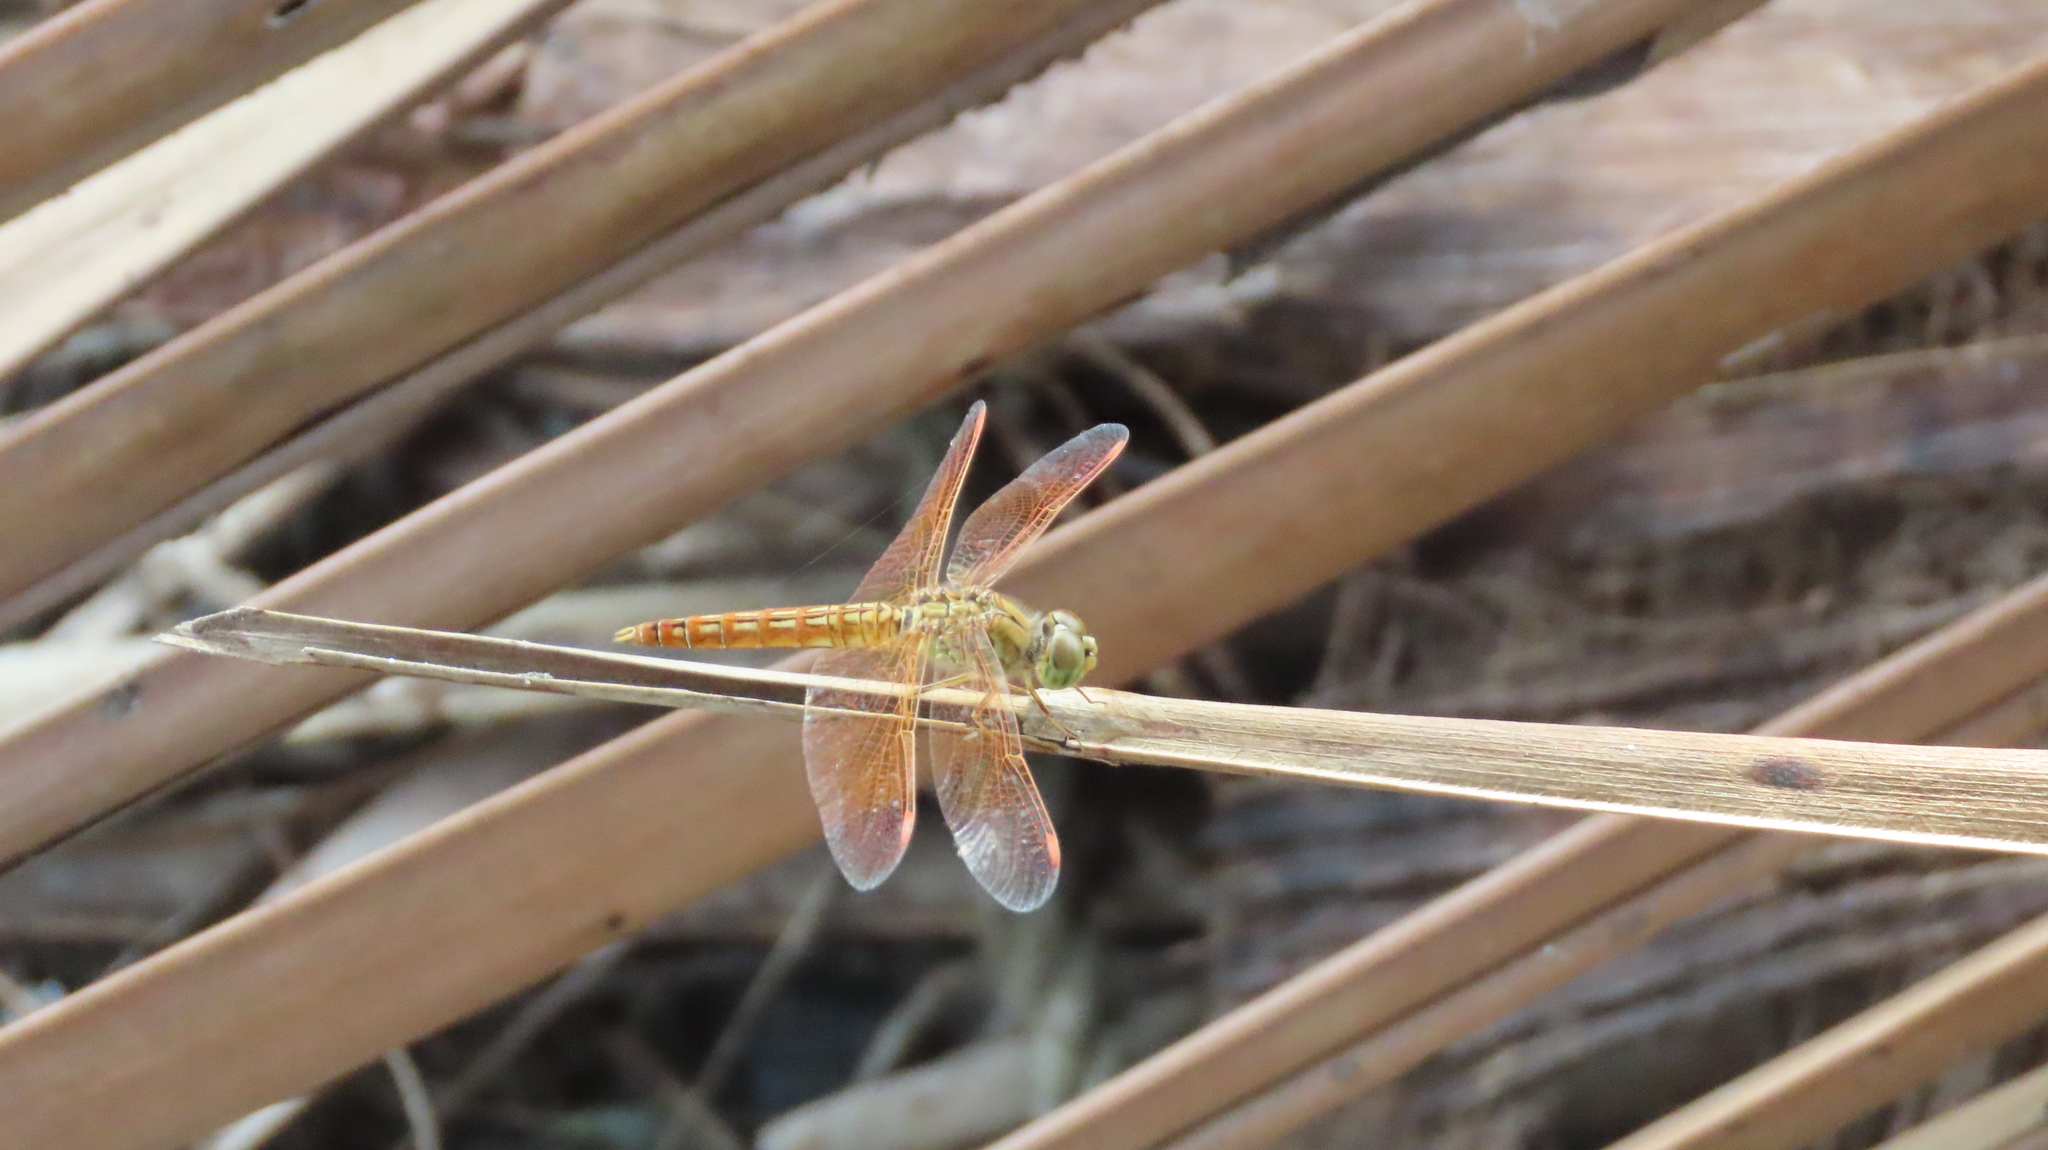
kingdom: Animalia
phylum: Arthropoda
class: Insecta
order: Odonata
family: Libellulidae
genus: Brachythemis
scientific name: Brachythemis contaminata
